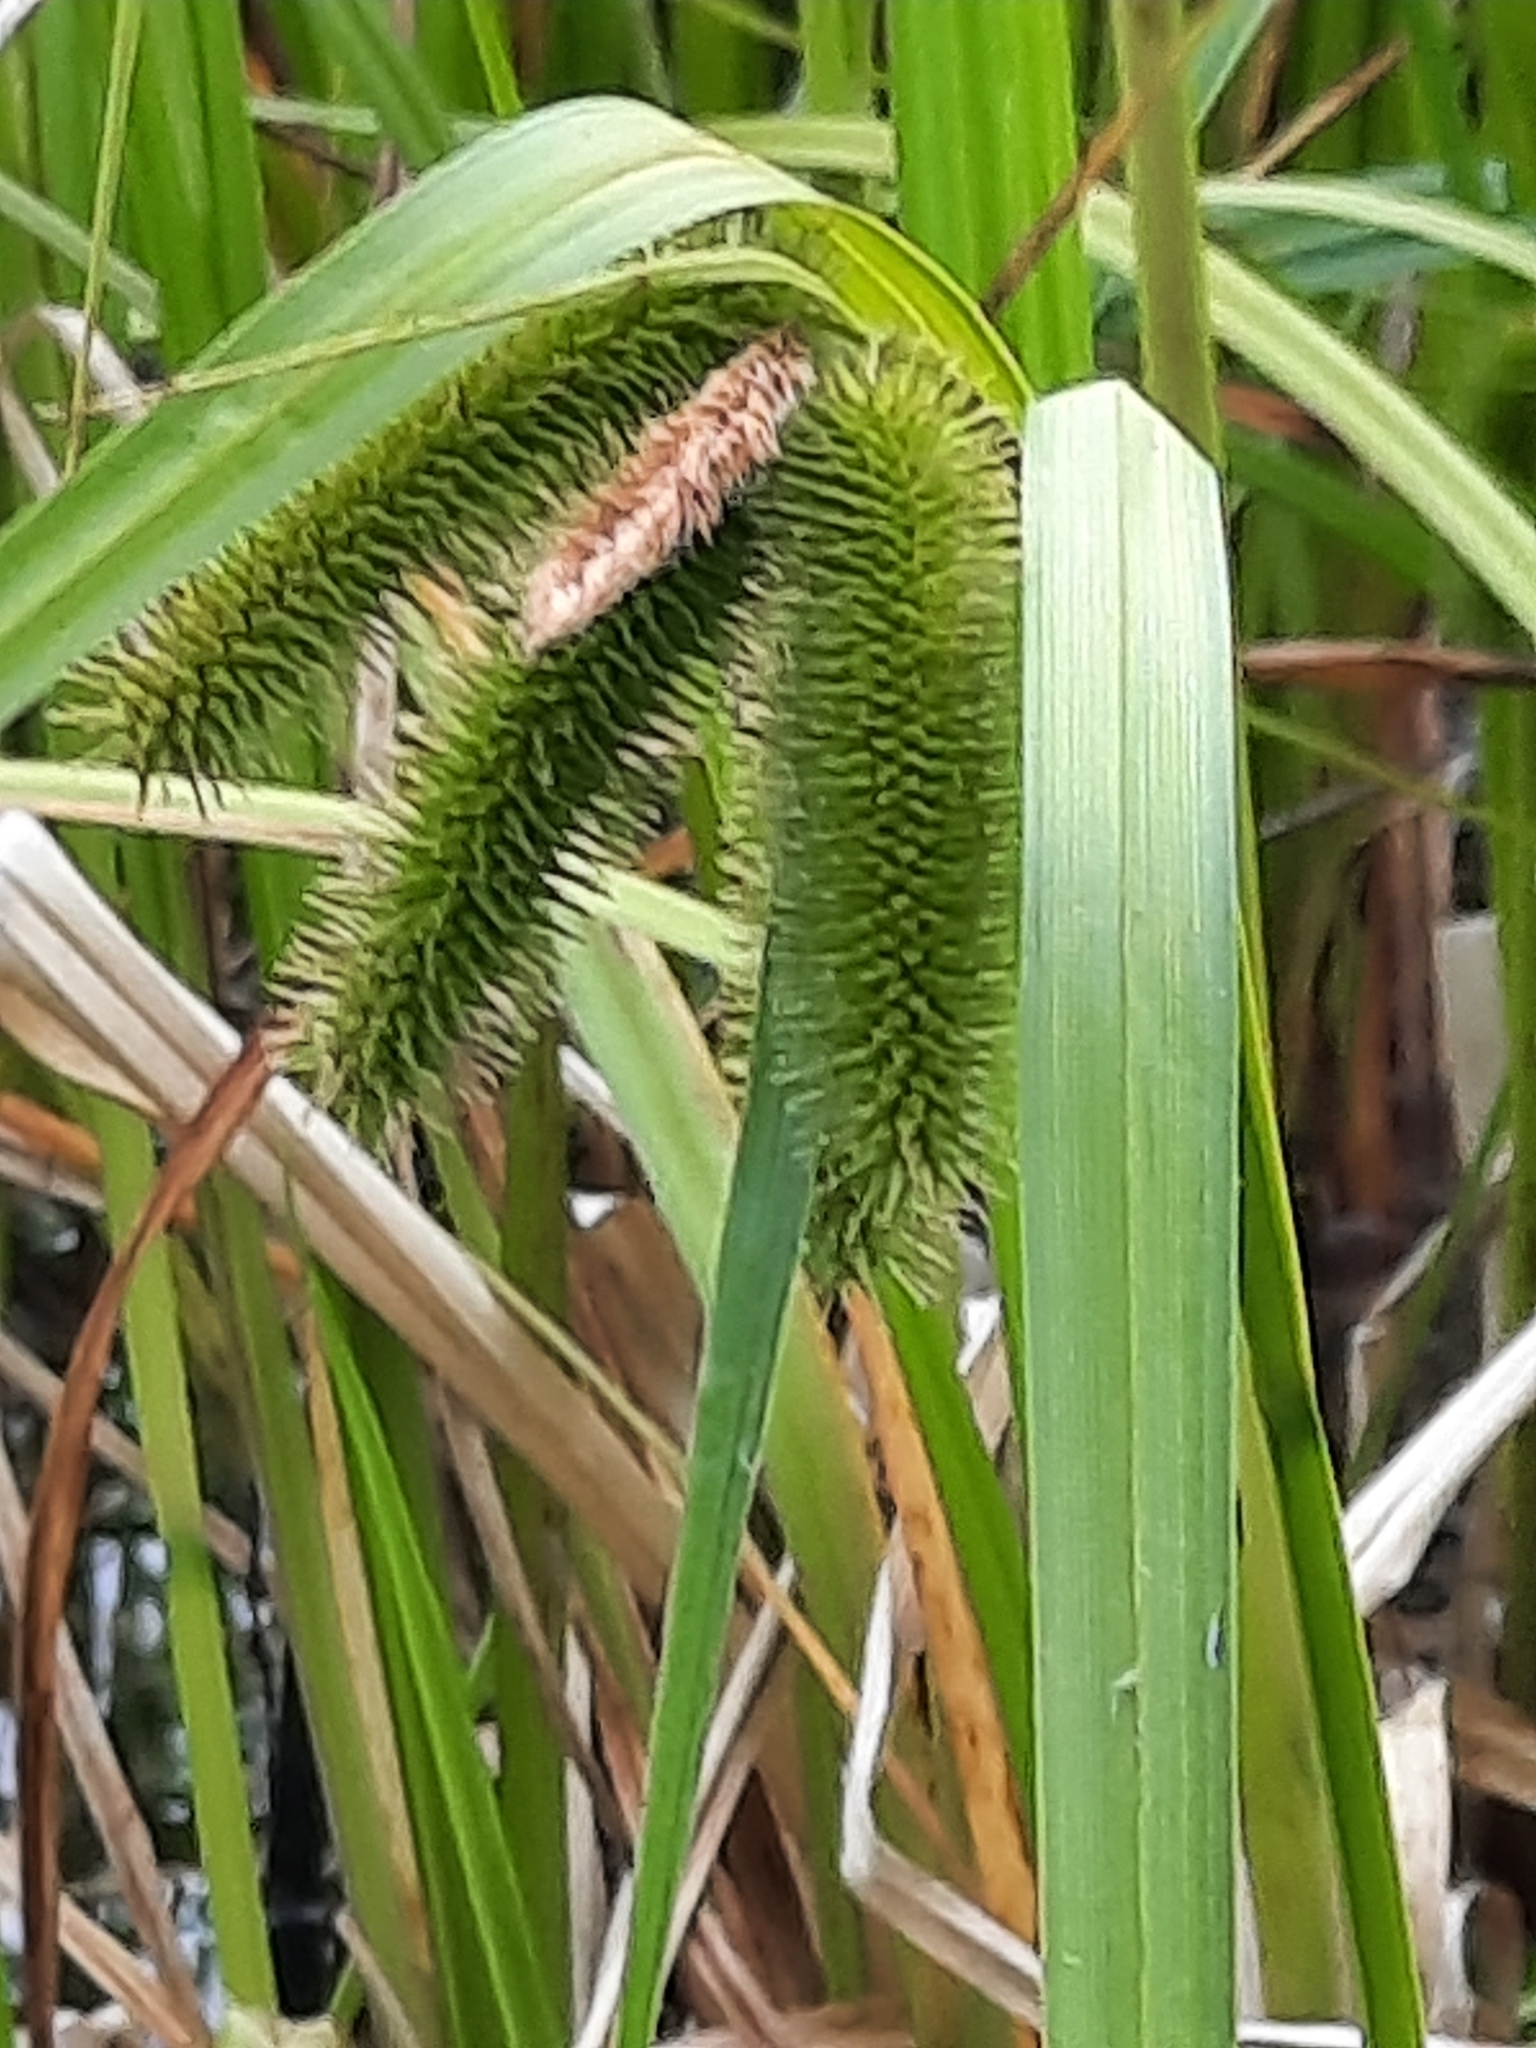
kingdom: Plantae
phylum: Tracheophyta
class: Liliopsida
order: Poales
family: Cyperaceae
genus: Carex
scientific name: Carex comosa
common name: Bristly sedge
